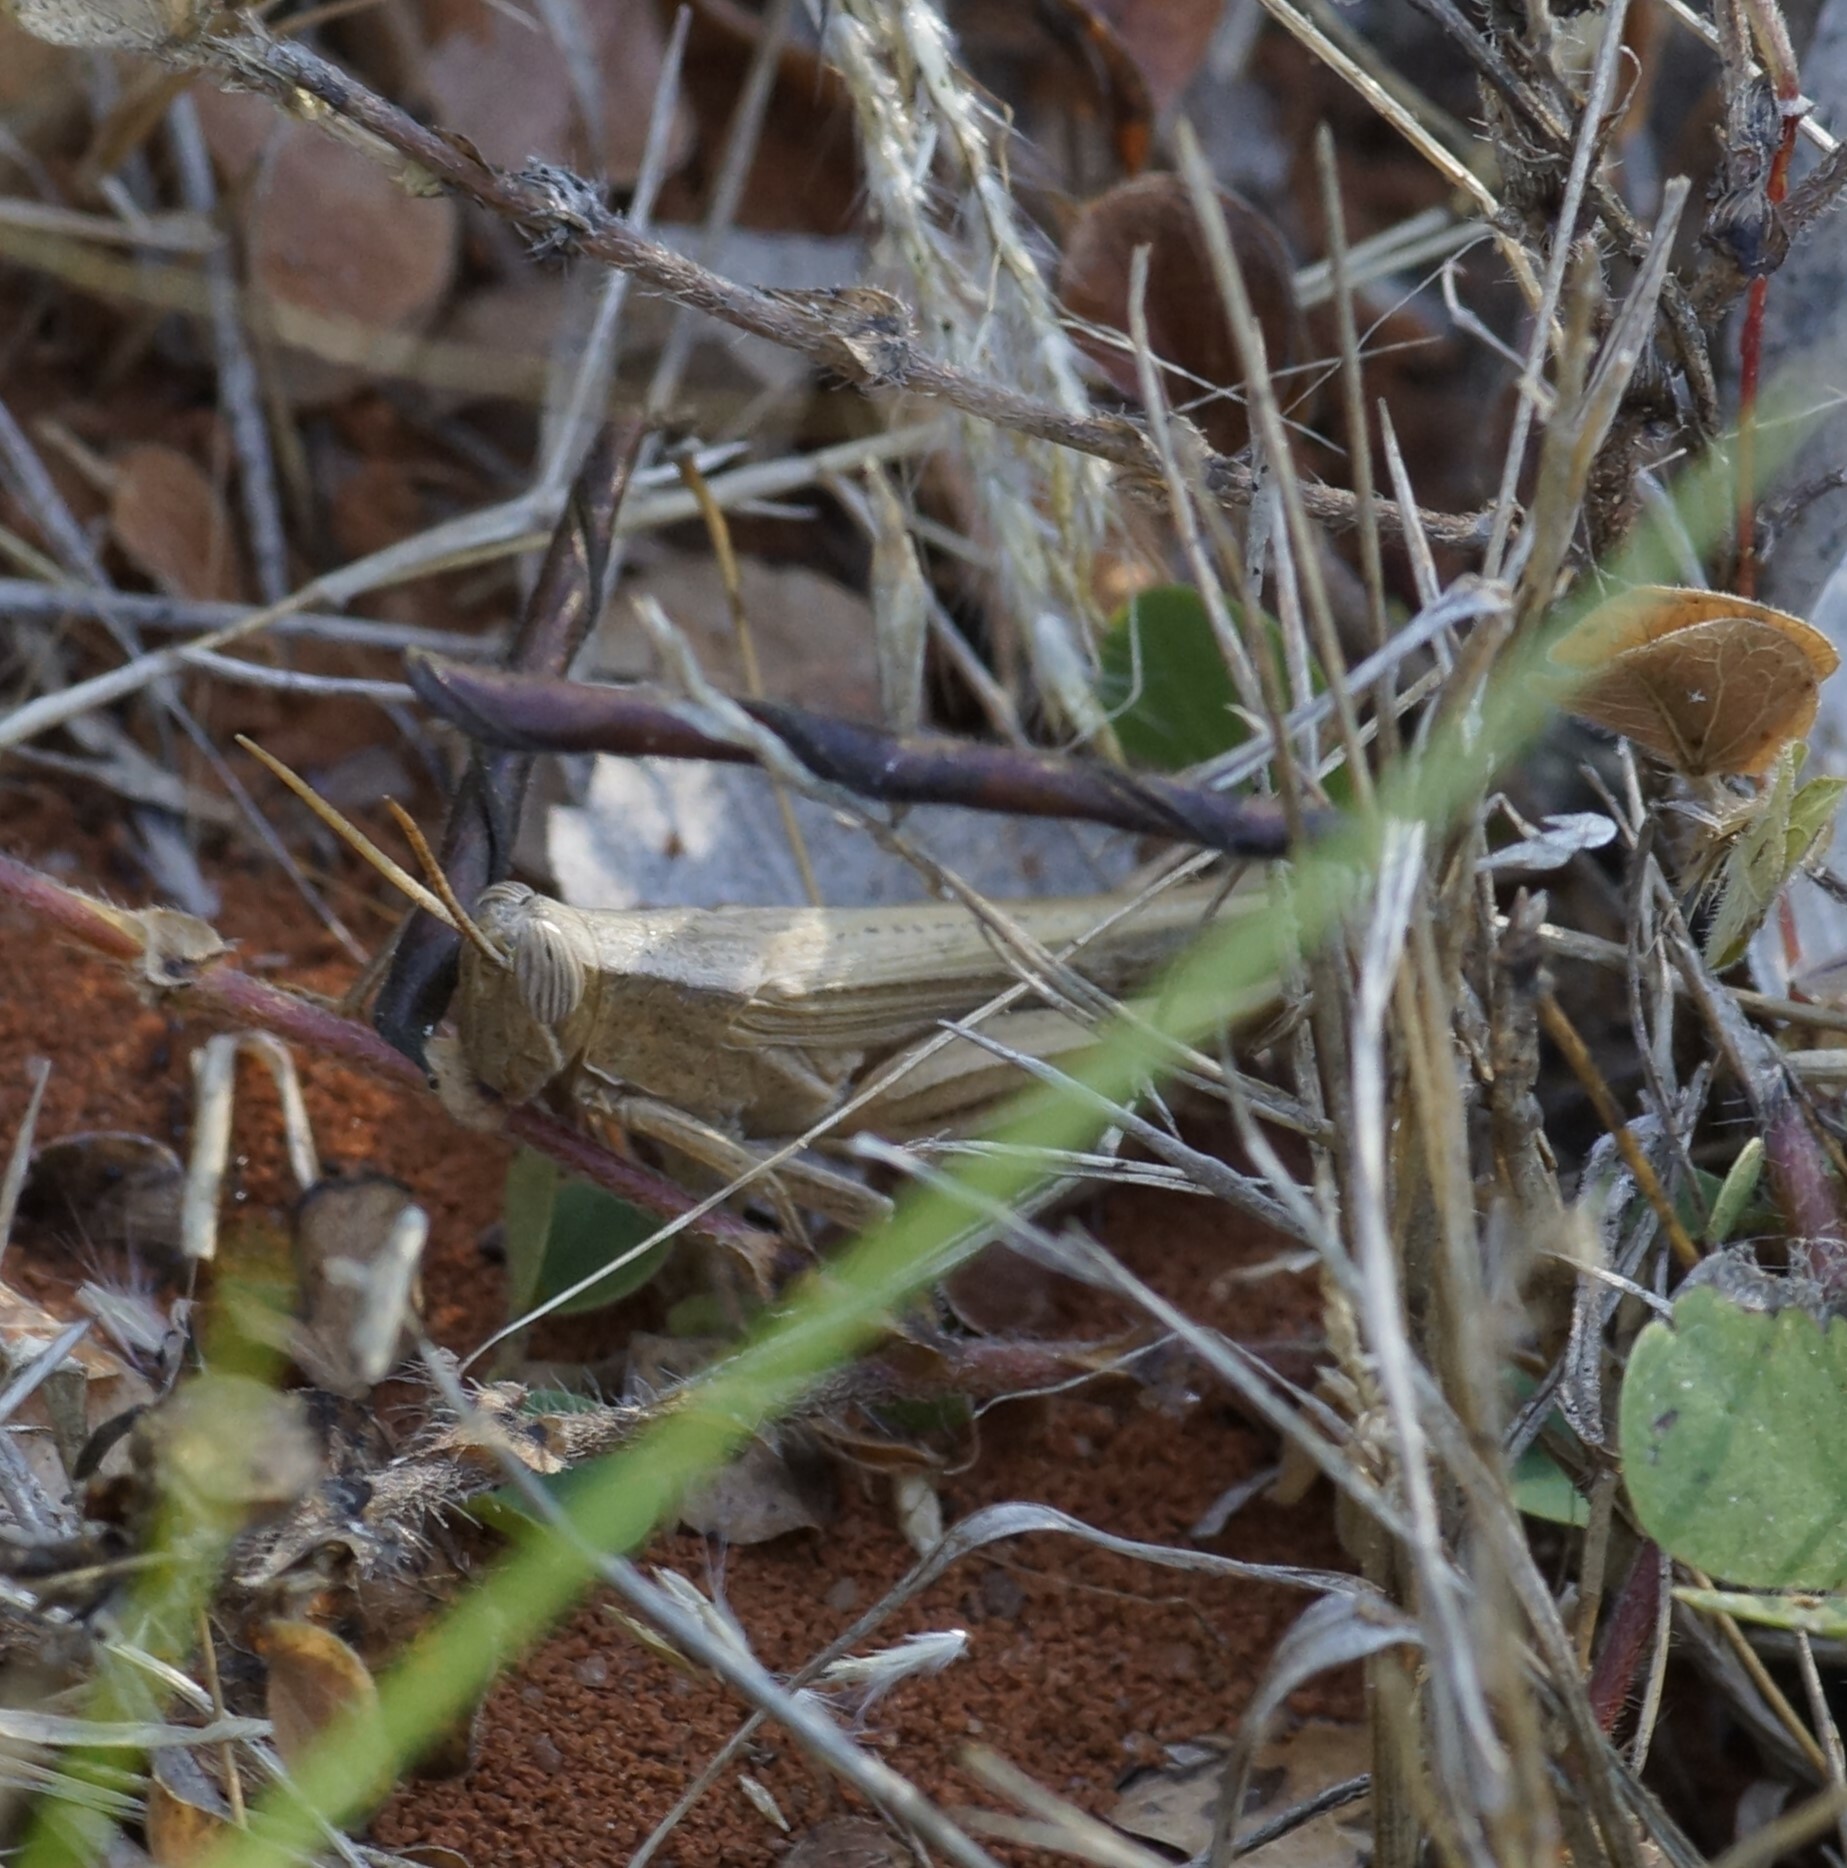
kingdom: Animalia
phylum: Arthropoda
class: Insecta
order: Orthoptera
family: Acrididae
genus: Stenocatantops
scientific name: Stenocatantops vitripennis
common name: Light-brown sharptail
